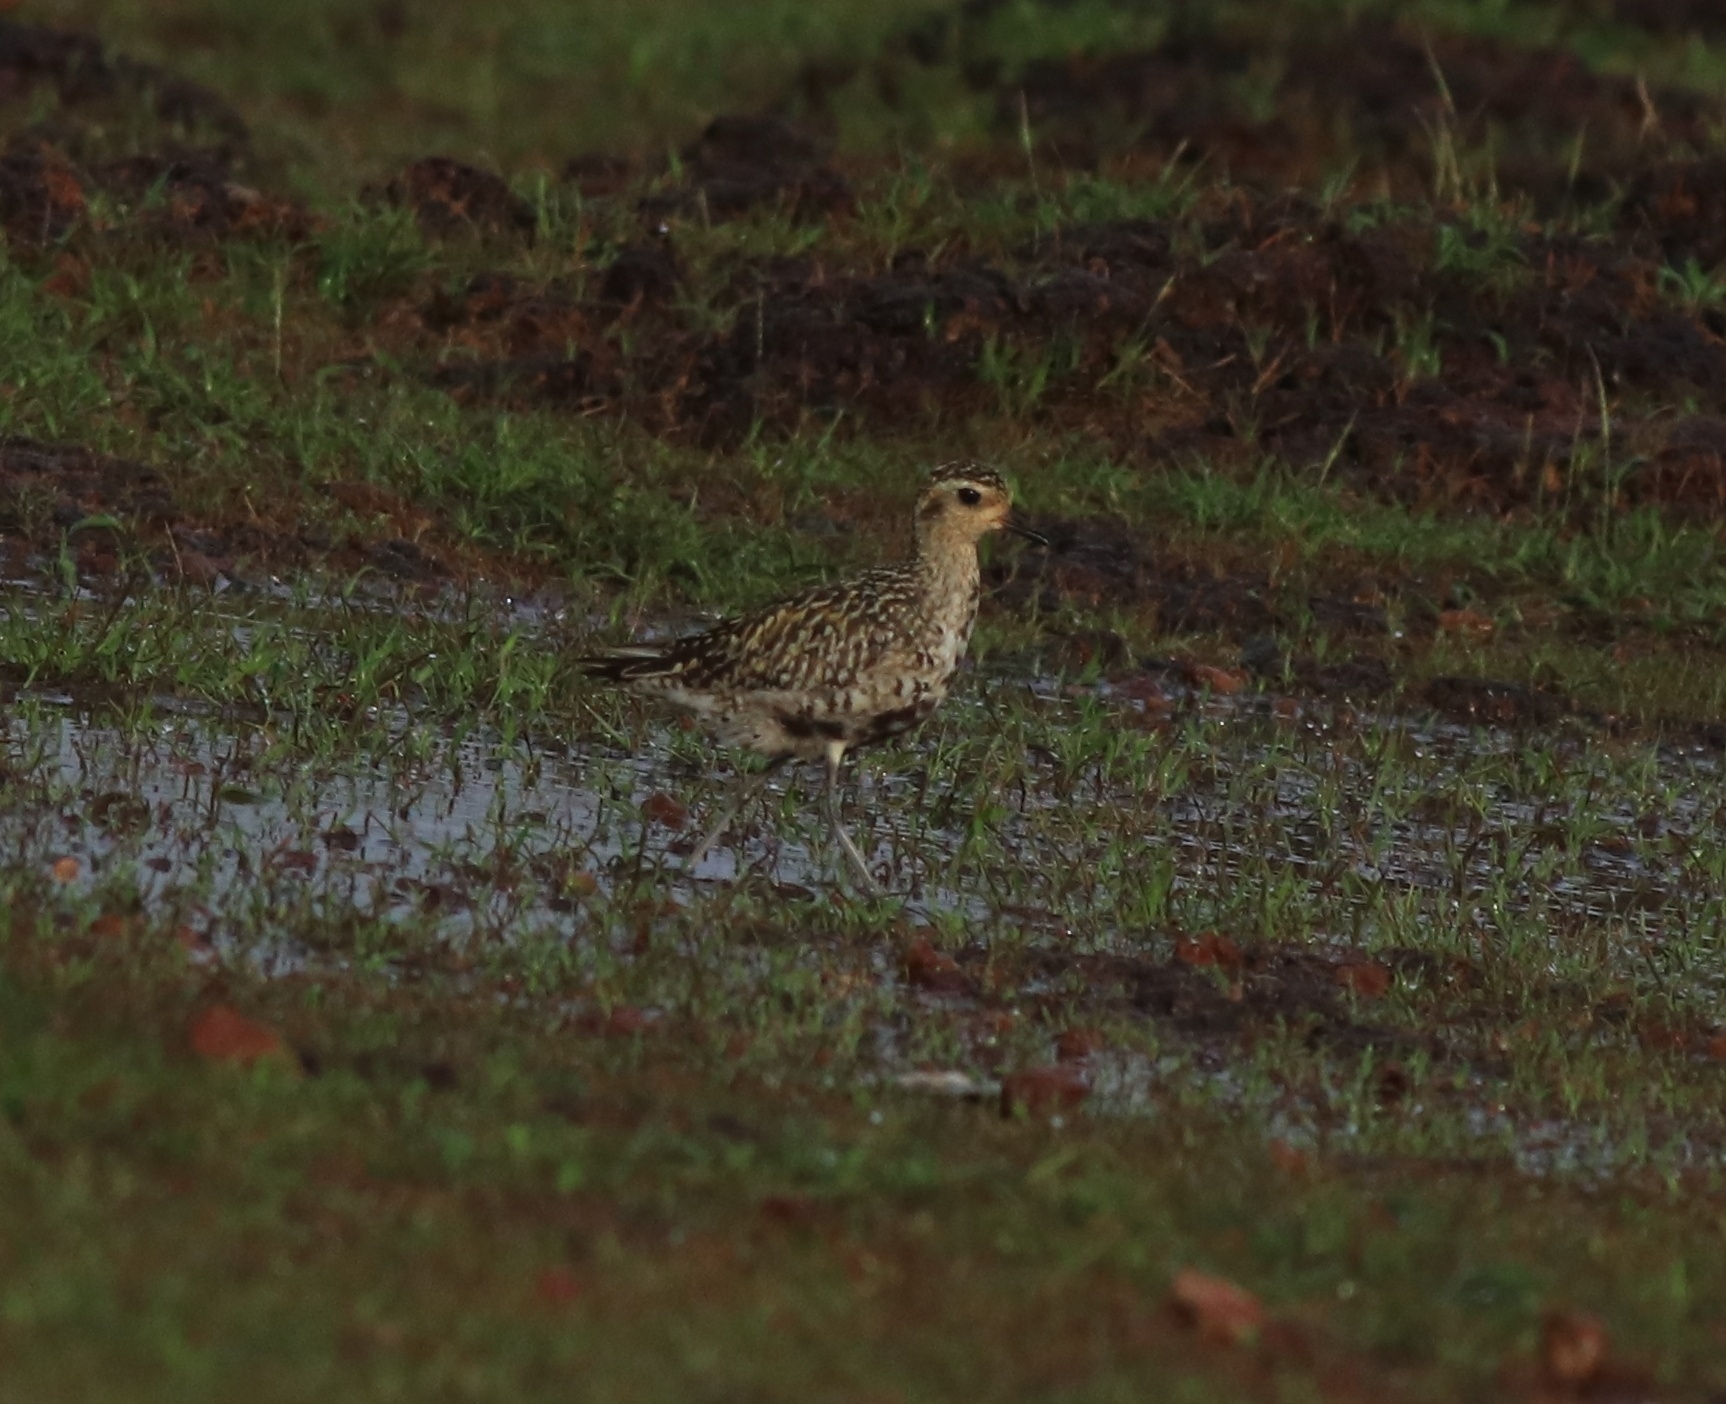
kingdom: Animalia
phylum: Chordata
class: Aves
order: Charadriiformes
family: Charadriidae
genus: Pluvialis
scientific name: Pluvialis fulva
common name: Pacific golden plover
